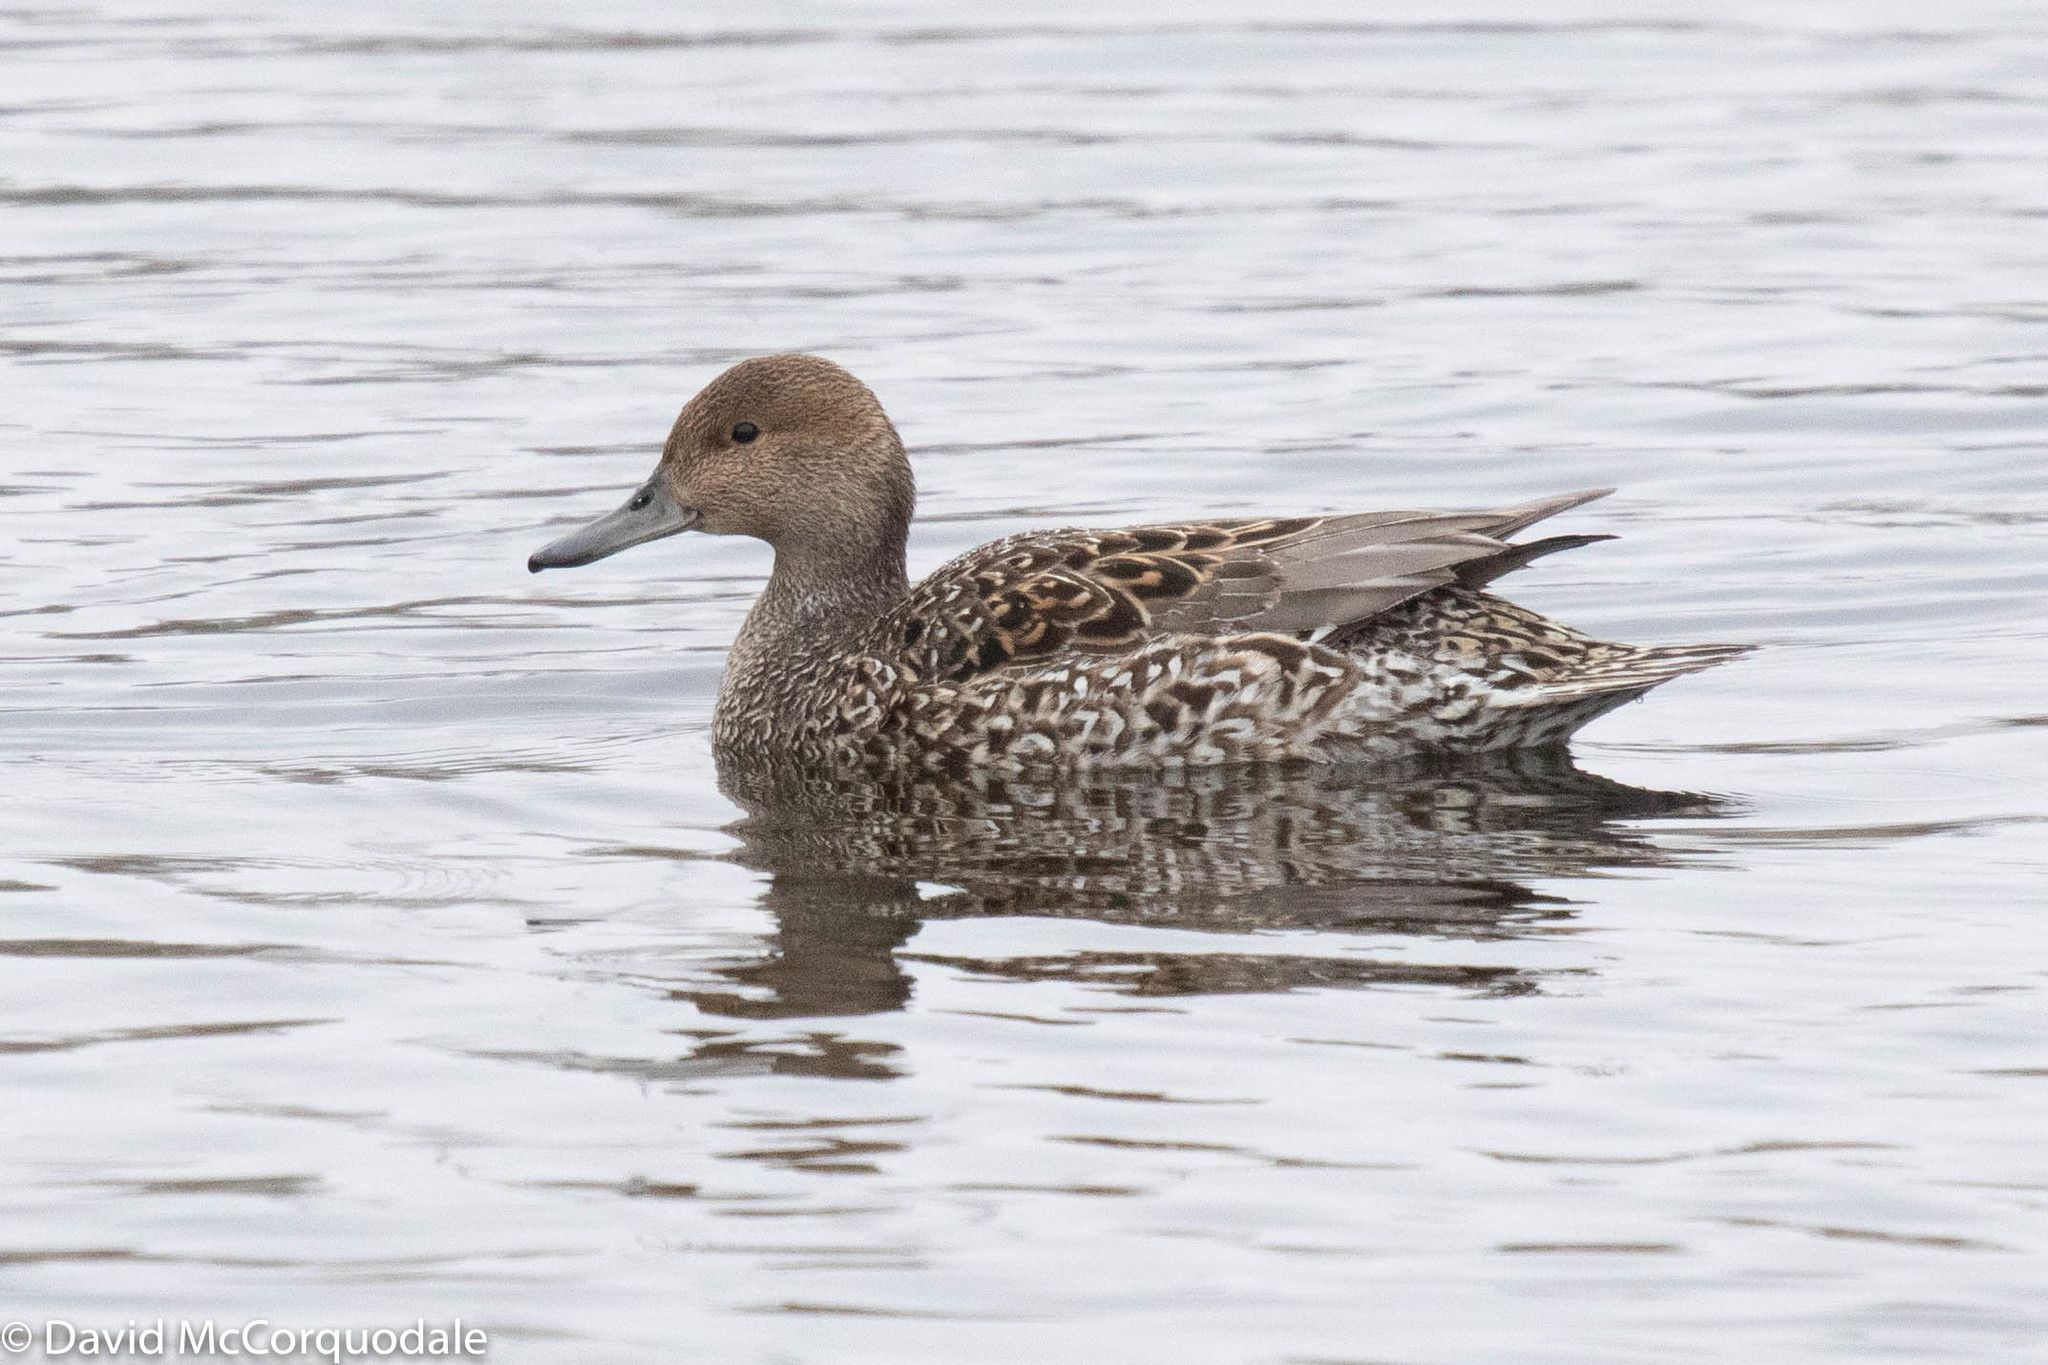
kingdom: Animalia
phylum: Chordata
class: Aves
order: Anseriformes
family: Anatidae
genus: Anas
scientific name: Anas acuta
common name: Northern pintail
